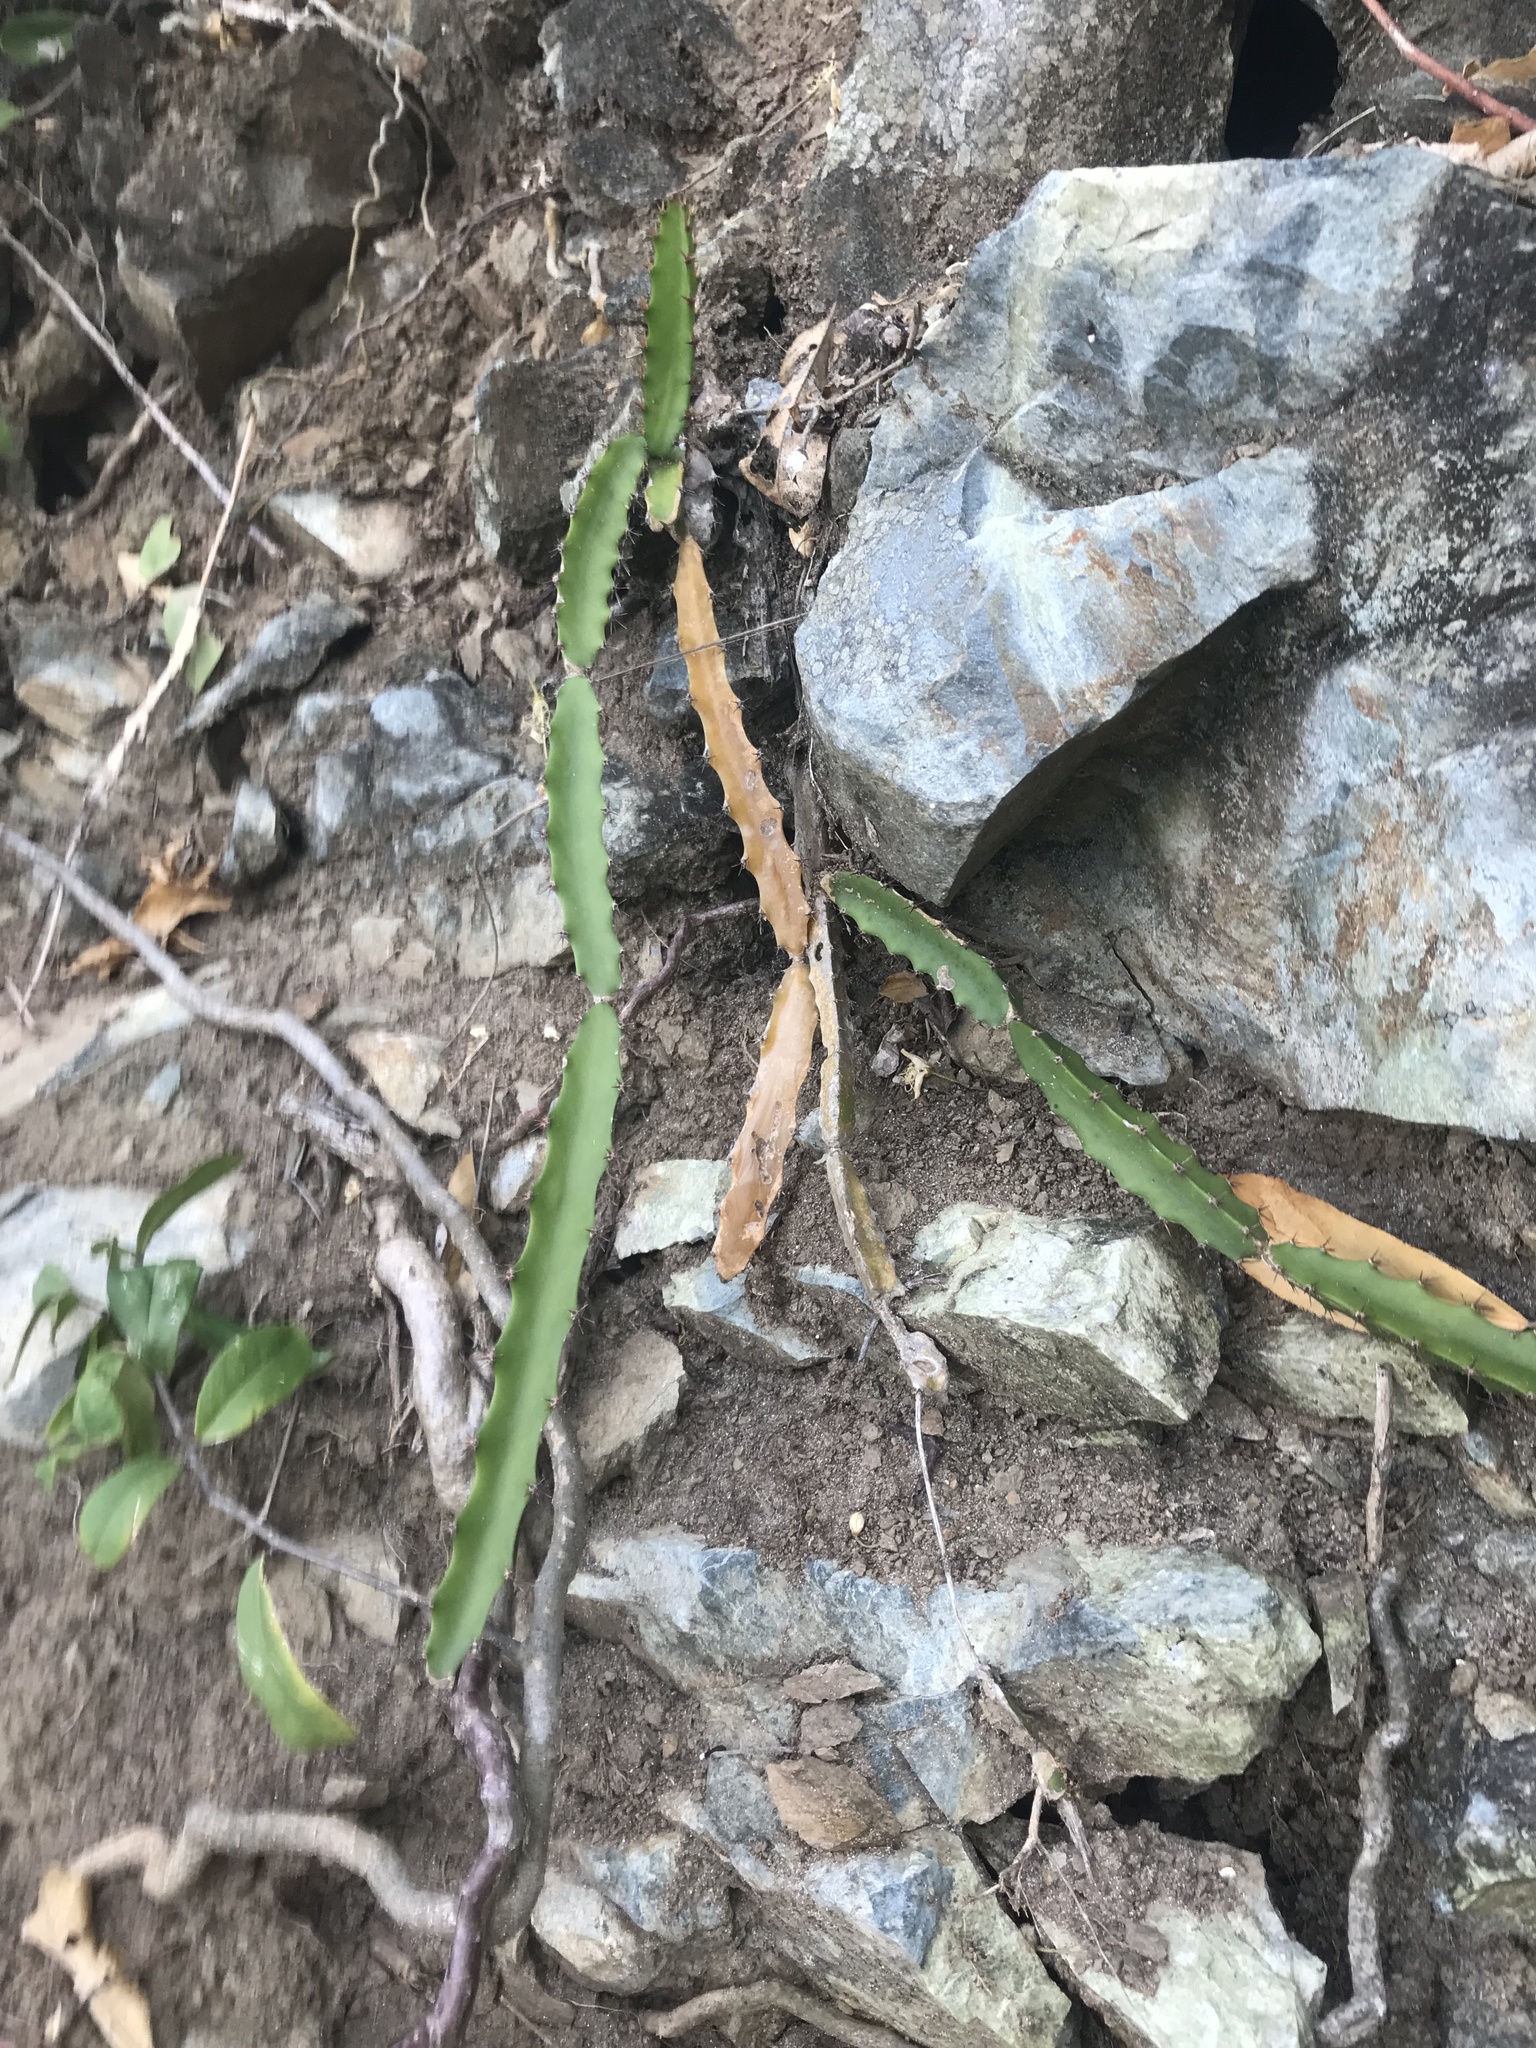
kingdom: Plantae
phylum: Tracheophyta
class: Magnoliopsida
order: Caryophyllales
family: Cactaceae
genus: Selenicereus
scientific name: Selenicereus triangularis
